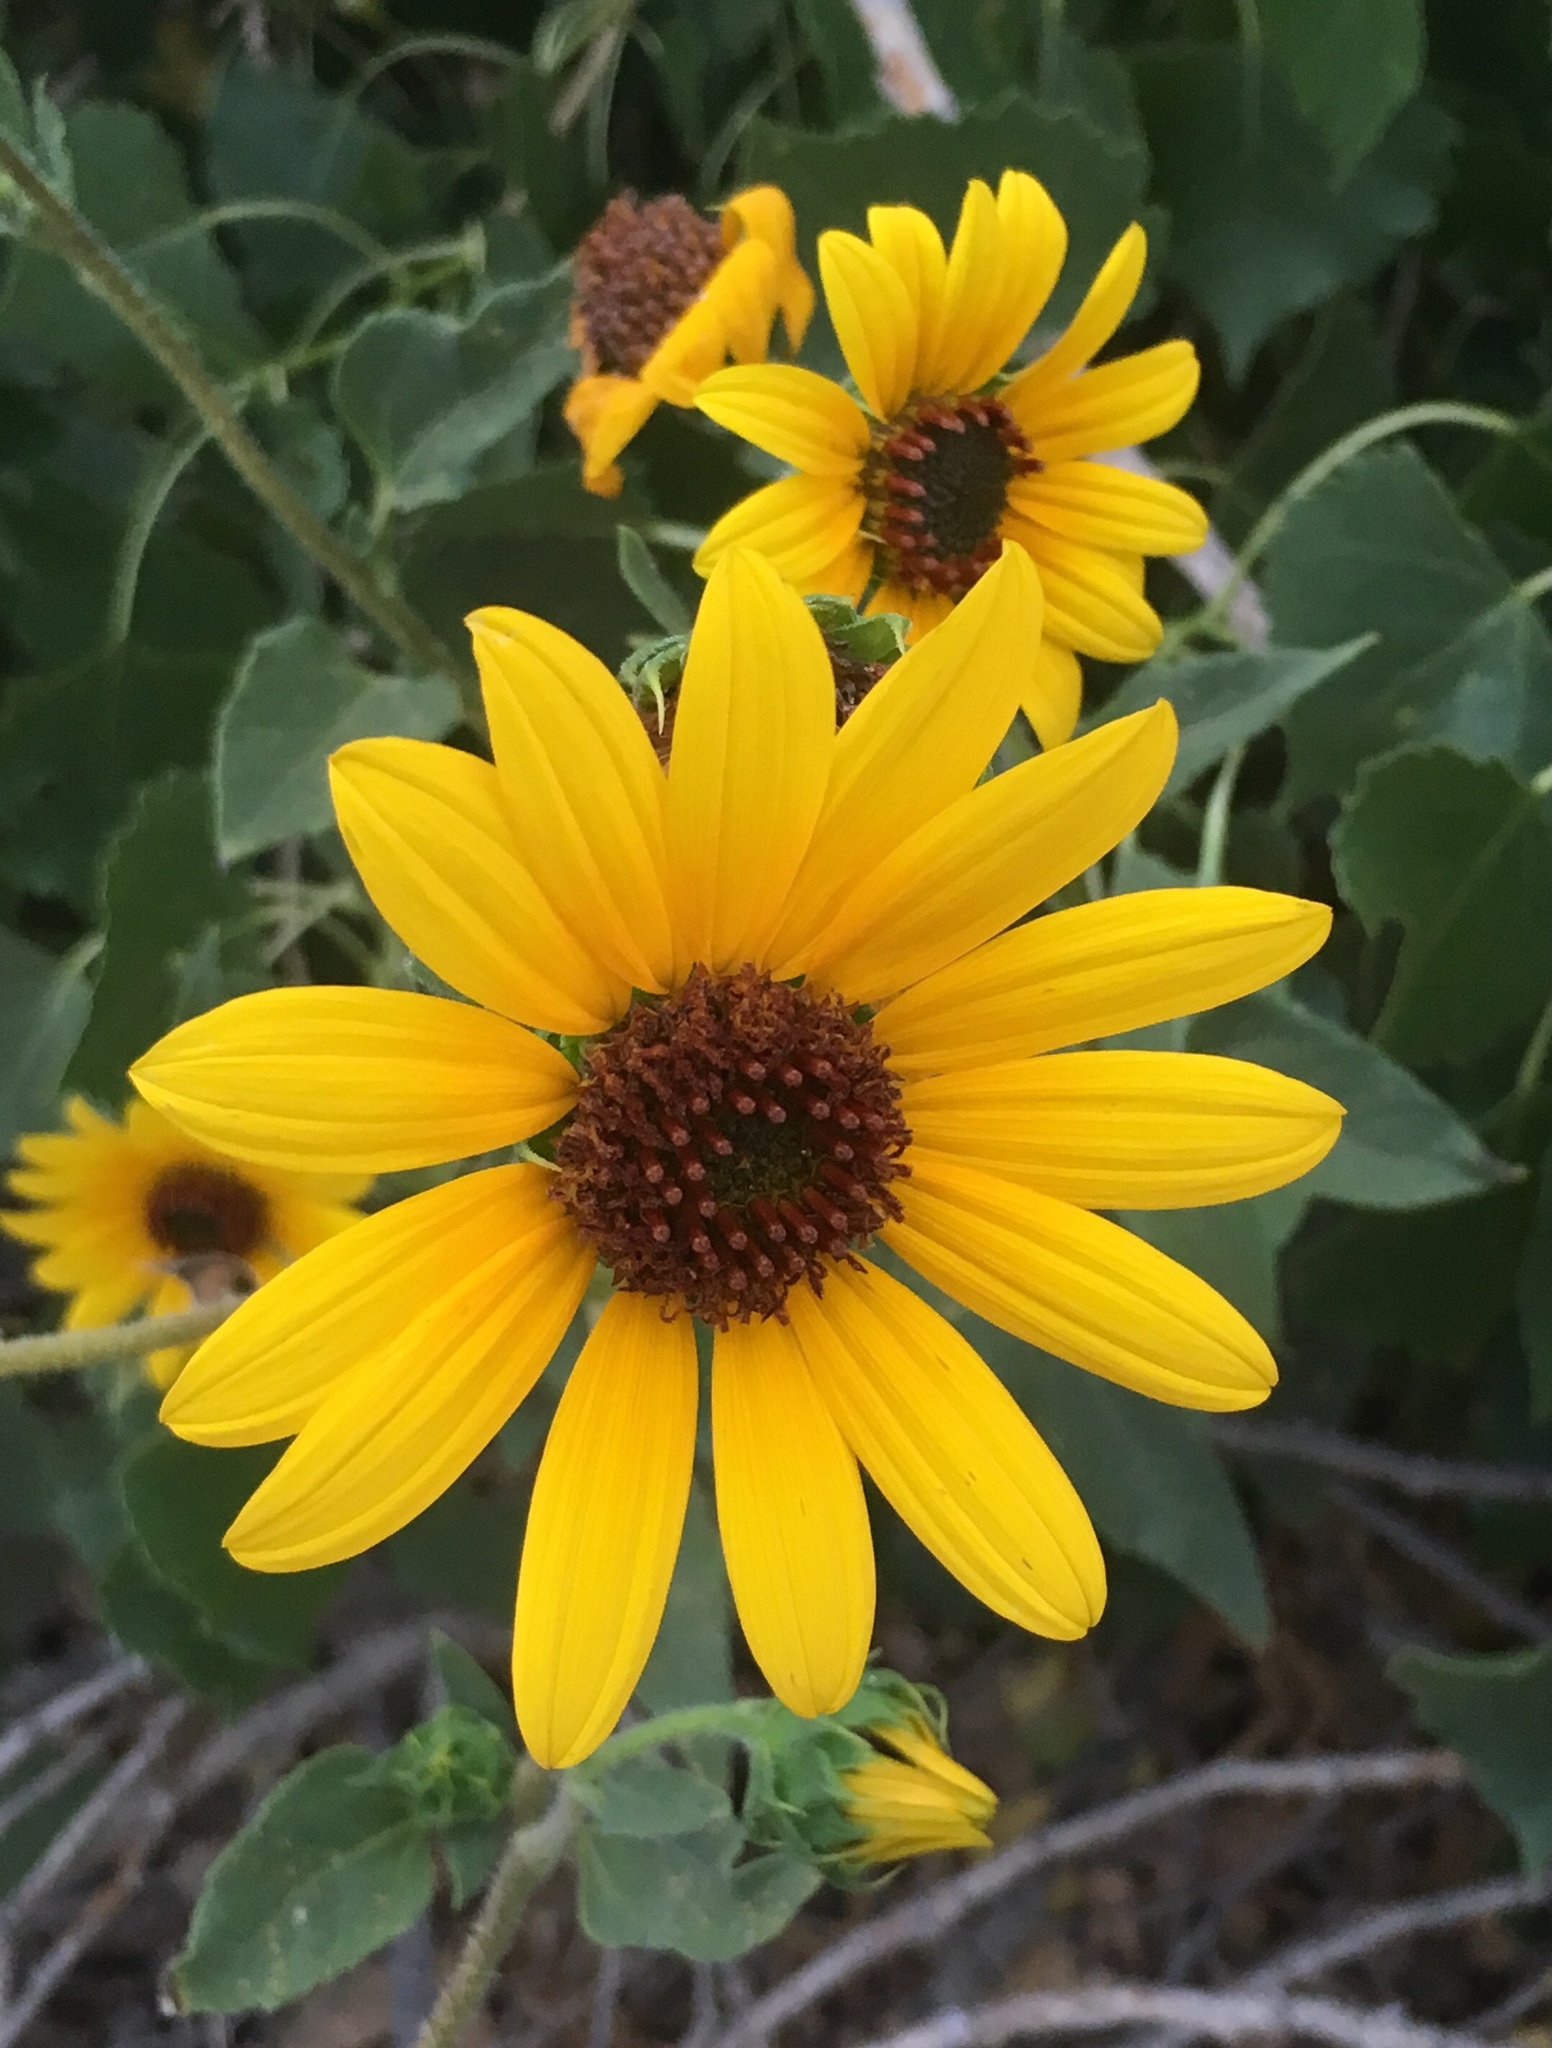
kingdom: Plantae
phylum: Tracheophyta
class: Magnoliopsida
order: Asterales
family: Asteraceae
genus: Helianthus
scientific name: Helianthus annuus
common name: Sunflower
